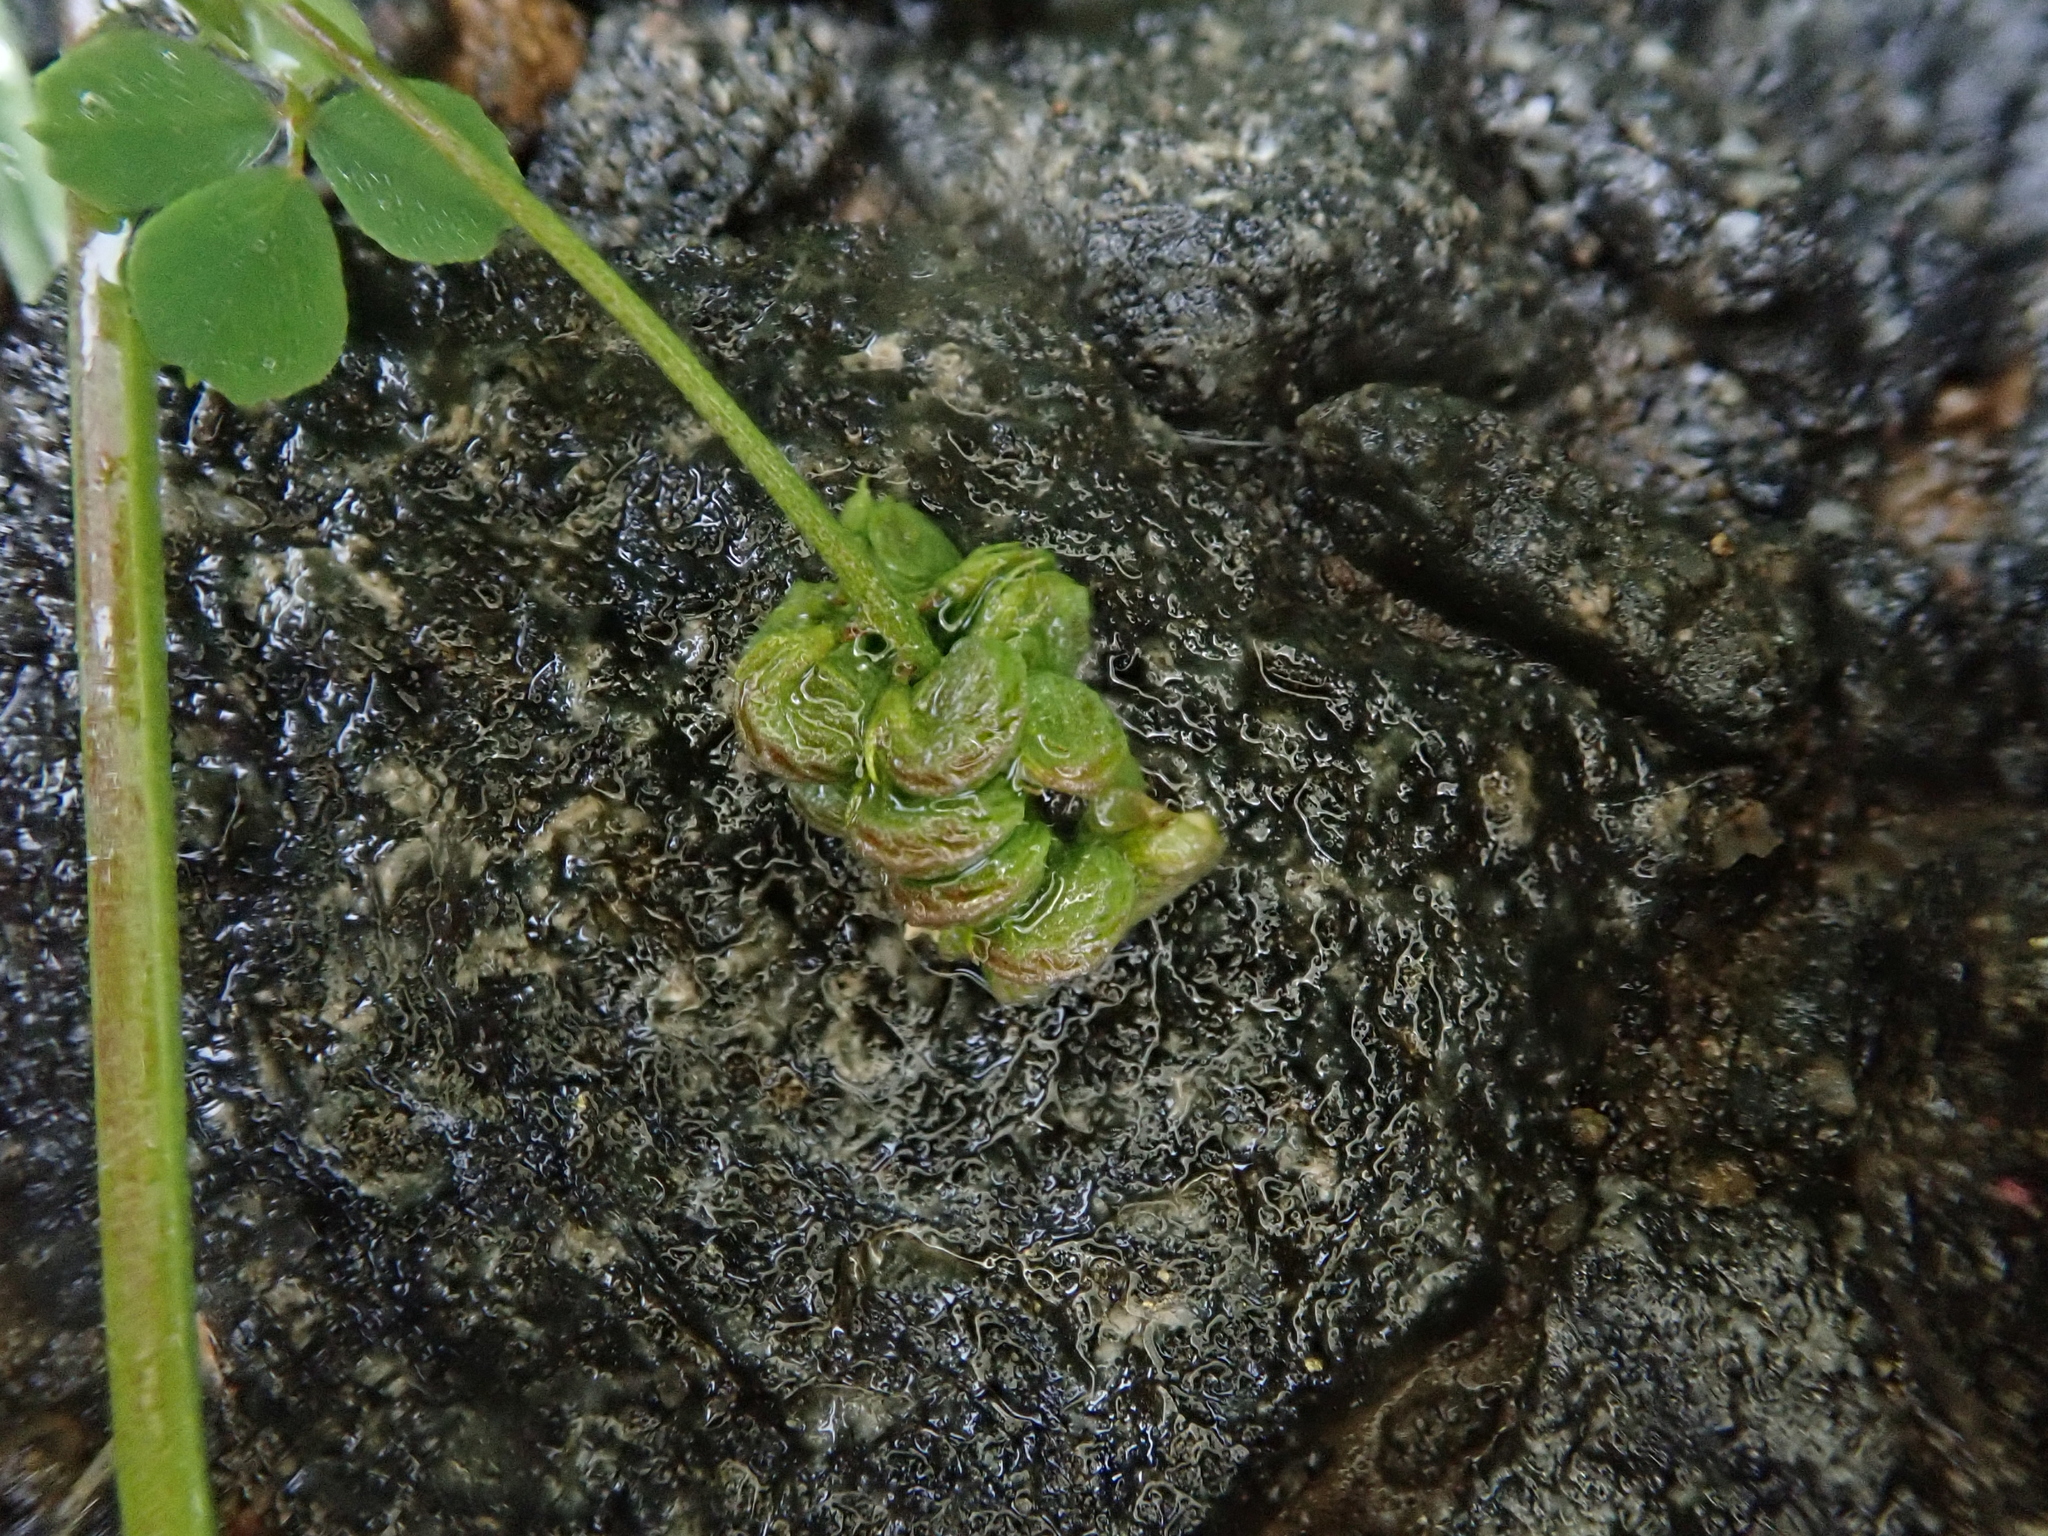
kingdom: Plantae
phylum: Tracheophyta
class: Magnoliopsida
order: Fabales
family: Fabaceae
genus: Medicago
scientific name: Medicago lupulina
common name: Black medick
